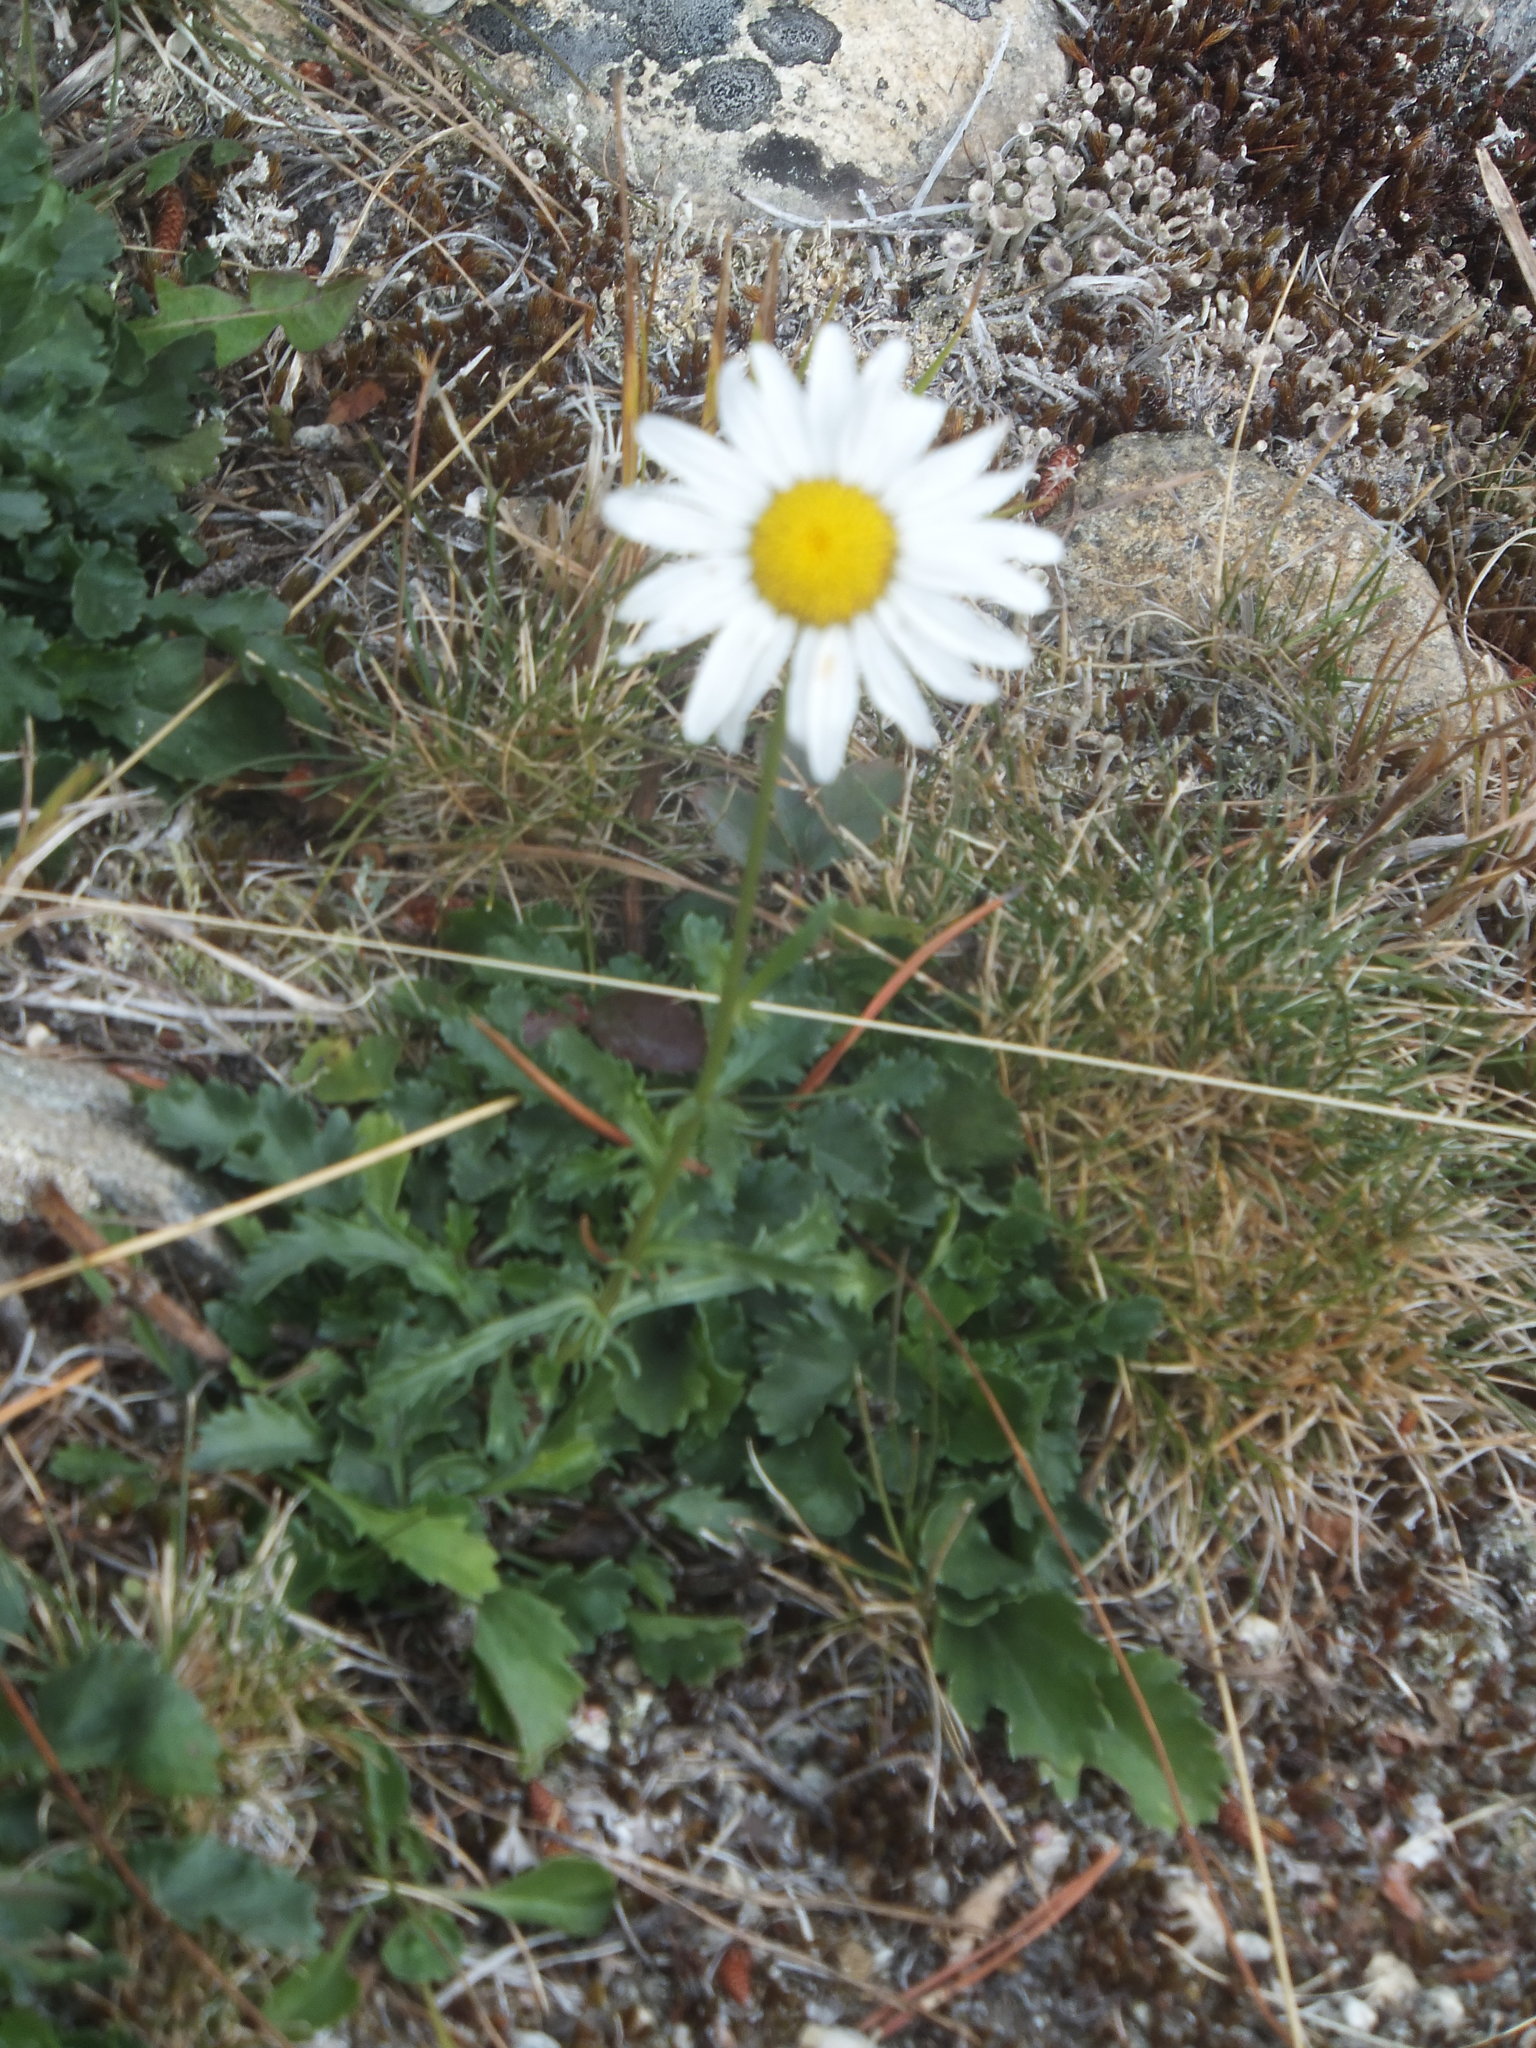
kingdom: Plantae
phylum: Tracheophyta
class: Magnoliopsida
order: Asterales
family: Asteraceae
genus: Leucanthemum
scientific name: Leucanthemum vulgare
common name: Oxeye daisy
